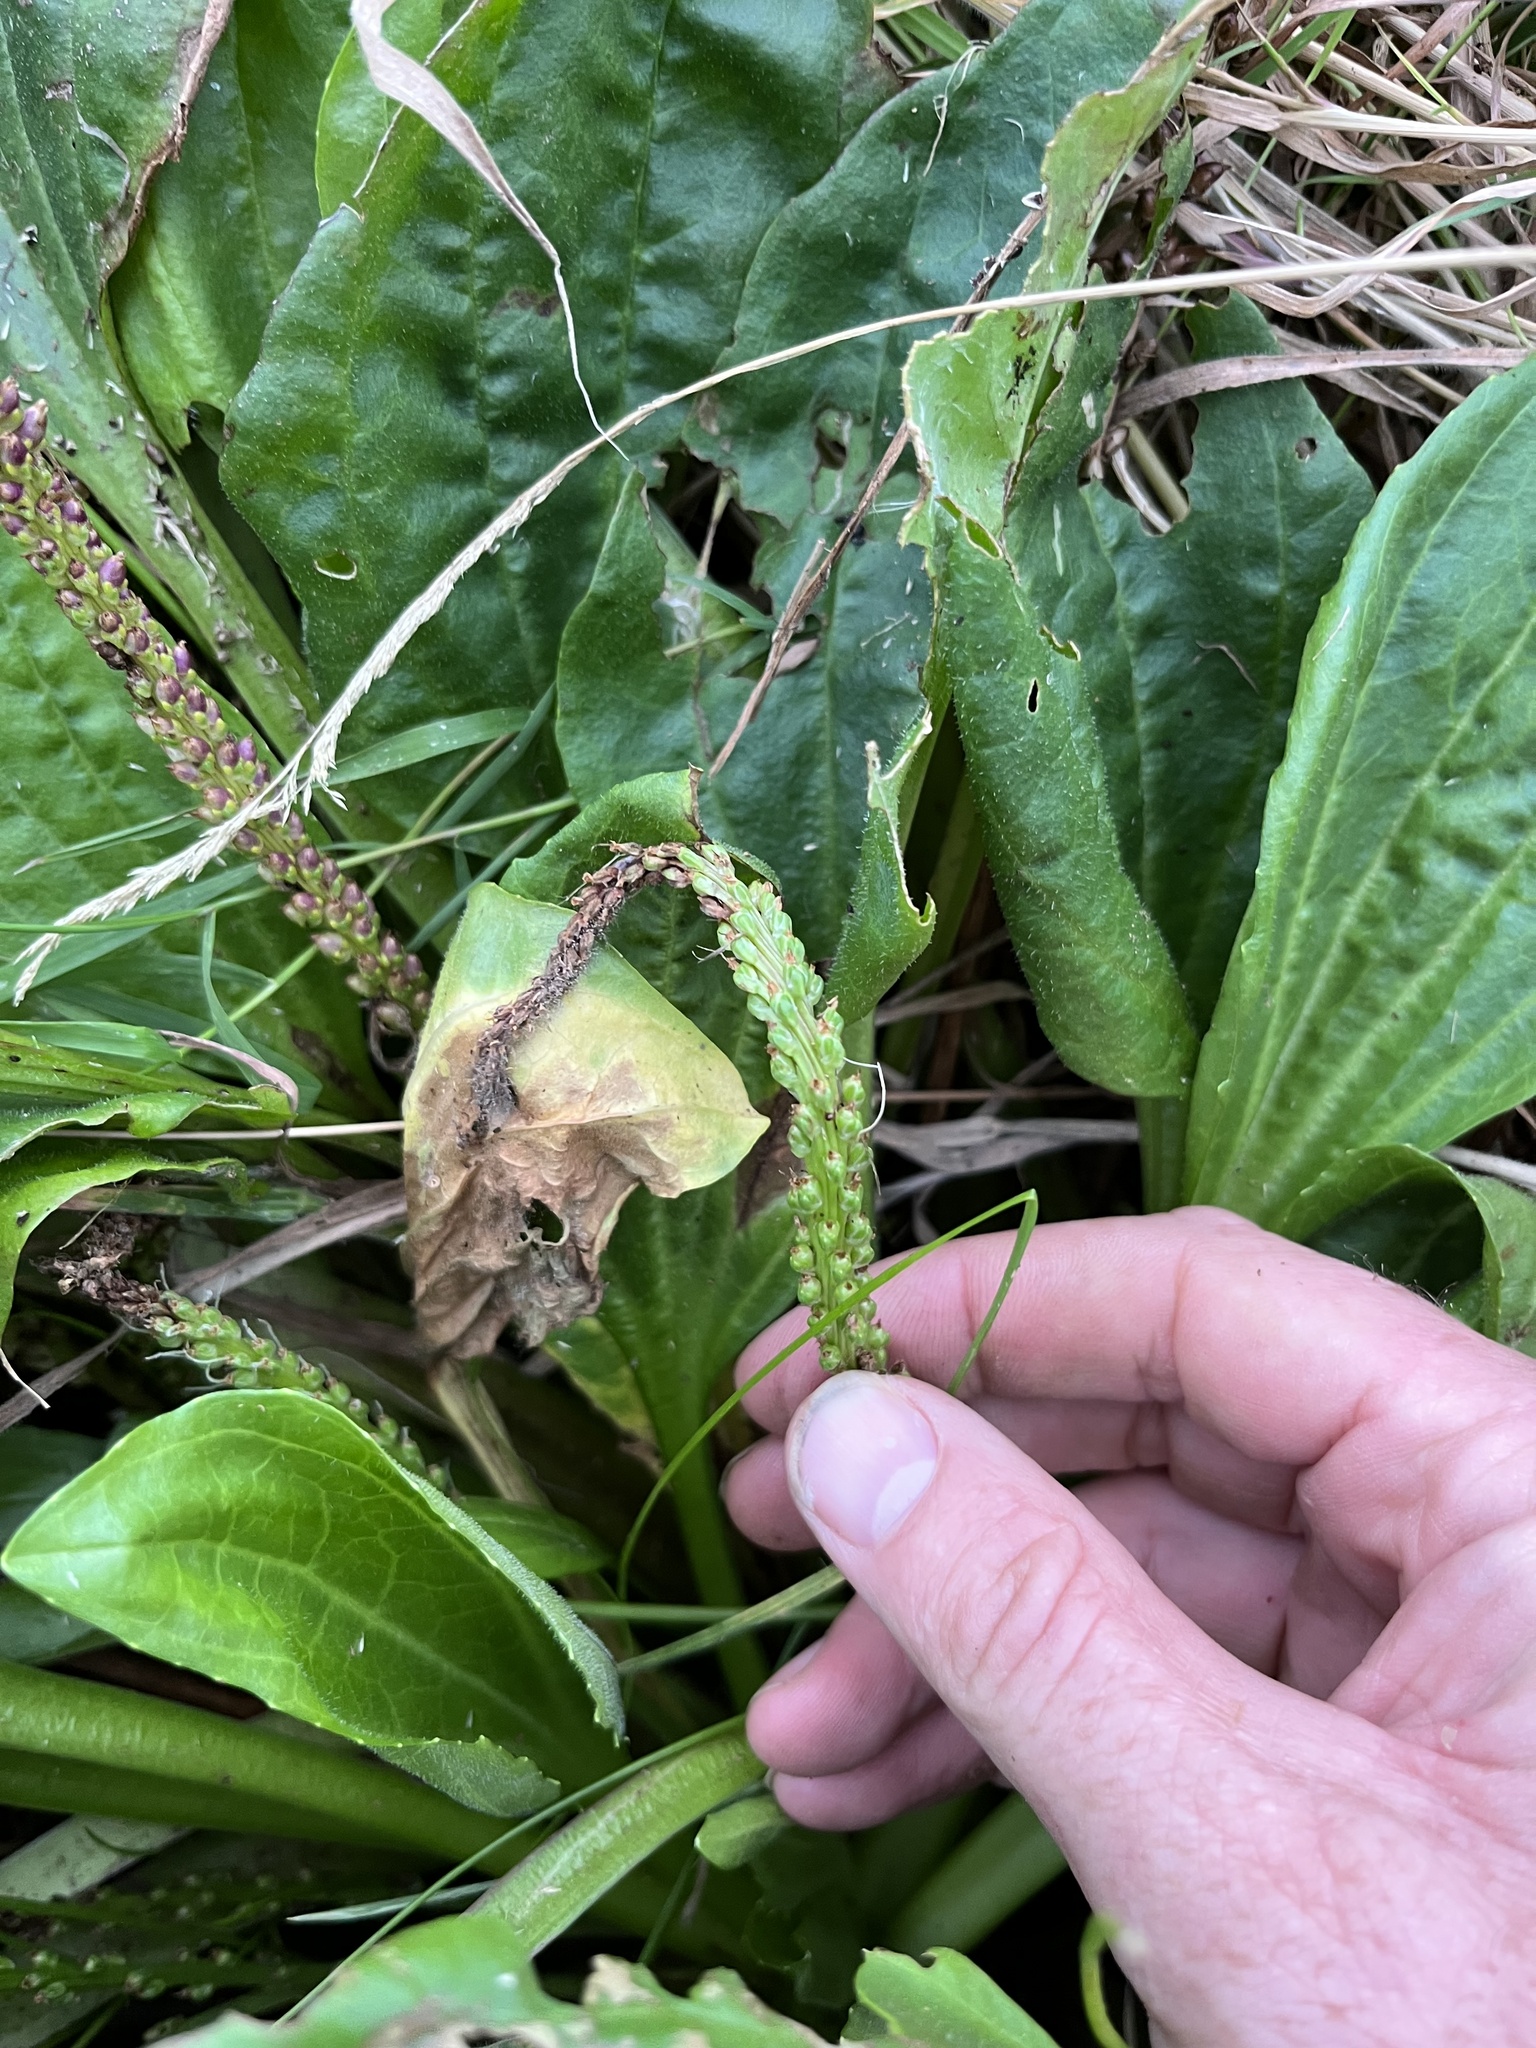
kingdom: Plantae
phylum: Tracheophyta
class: Magnoliopsida
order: Lamiales
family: Plantaginaceae
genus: Plantago
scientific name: Plantago major
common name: Common plantain
